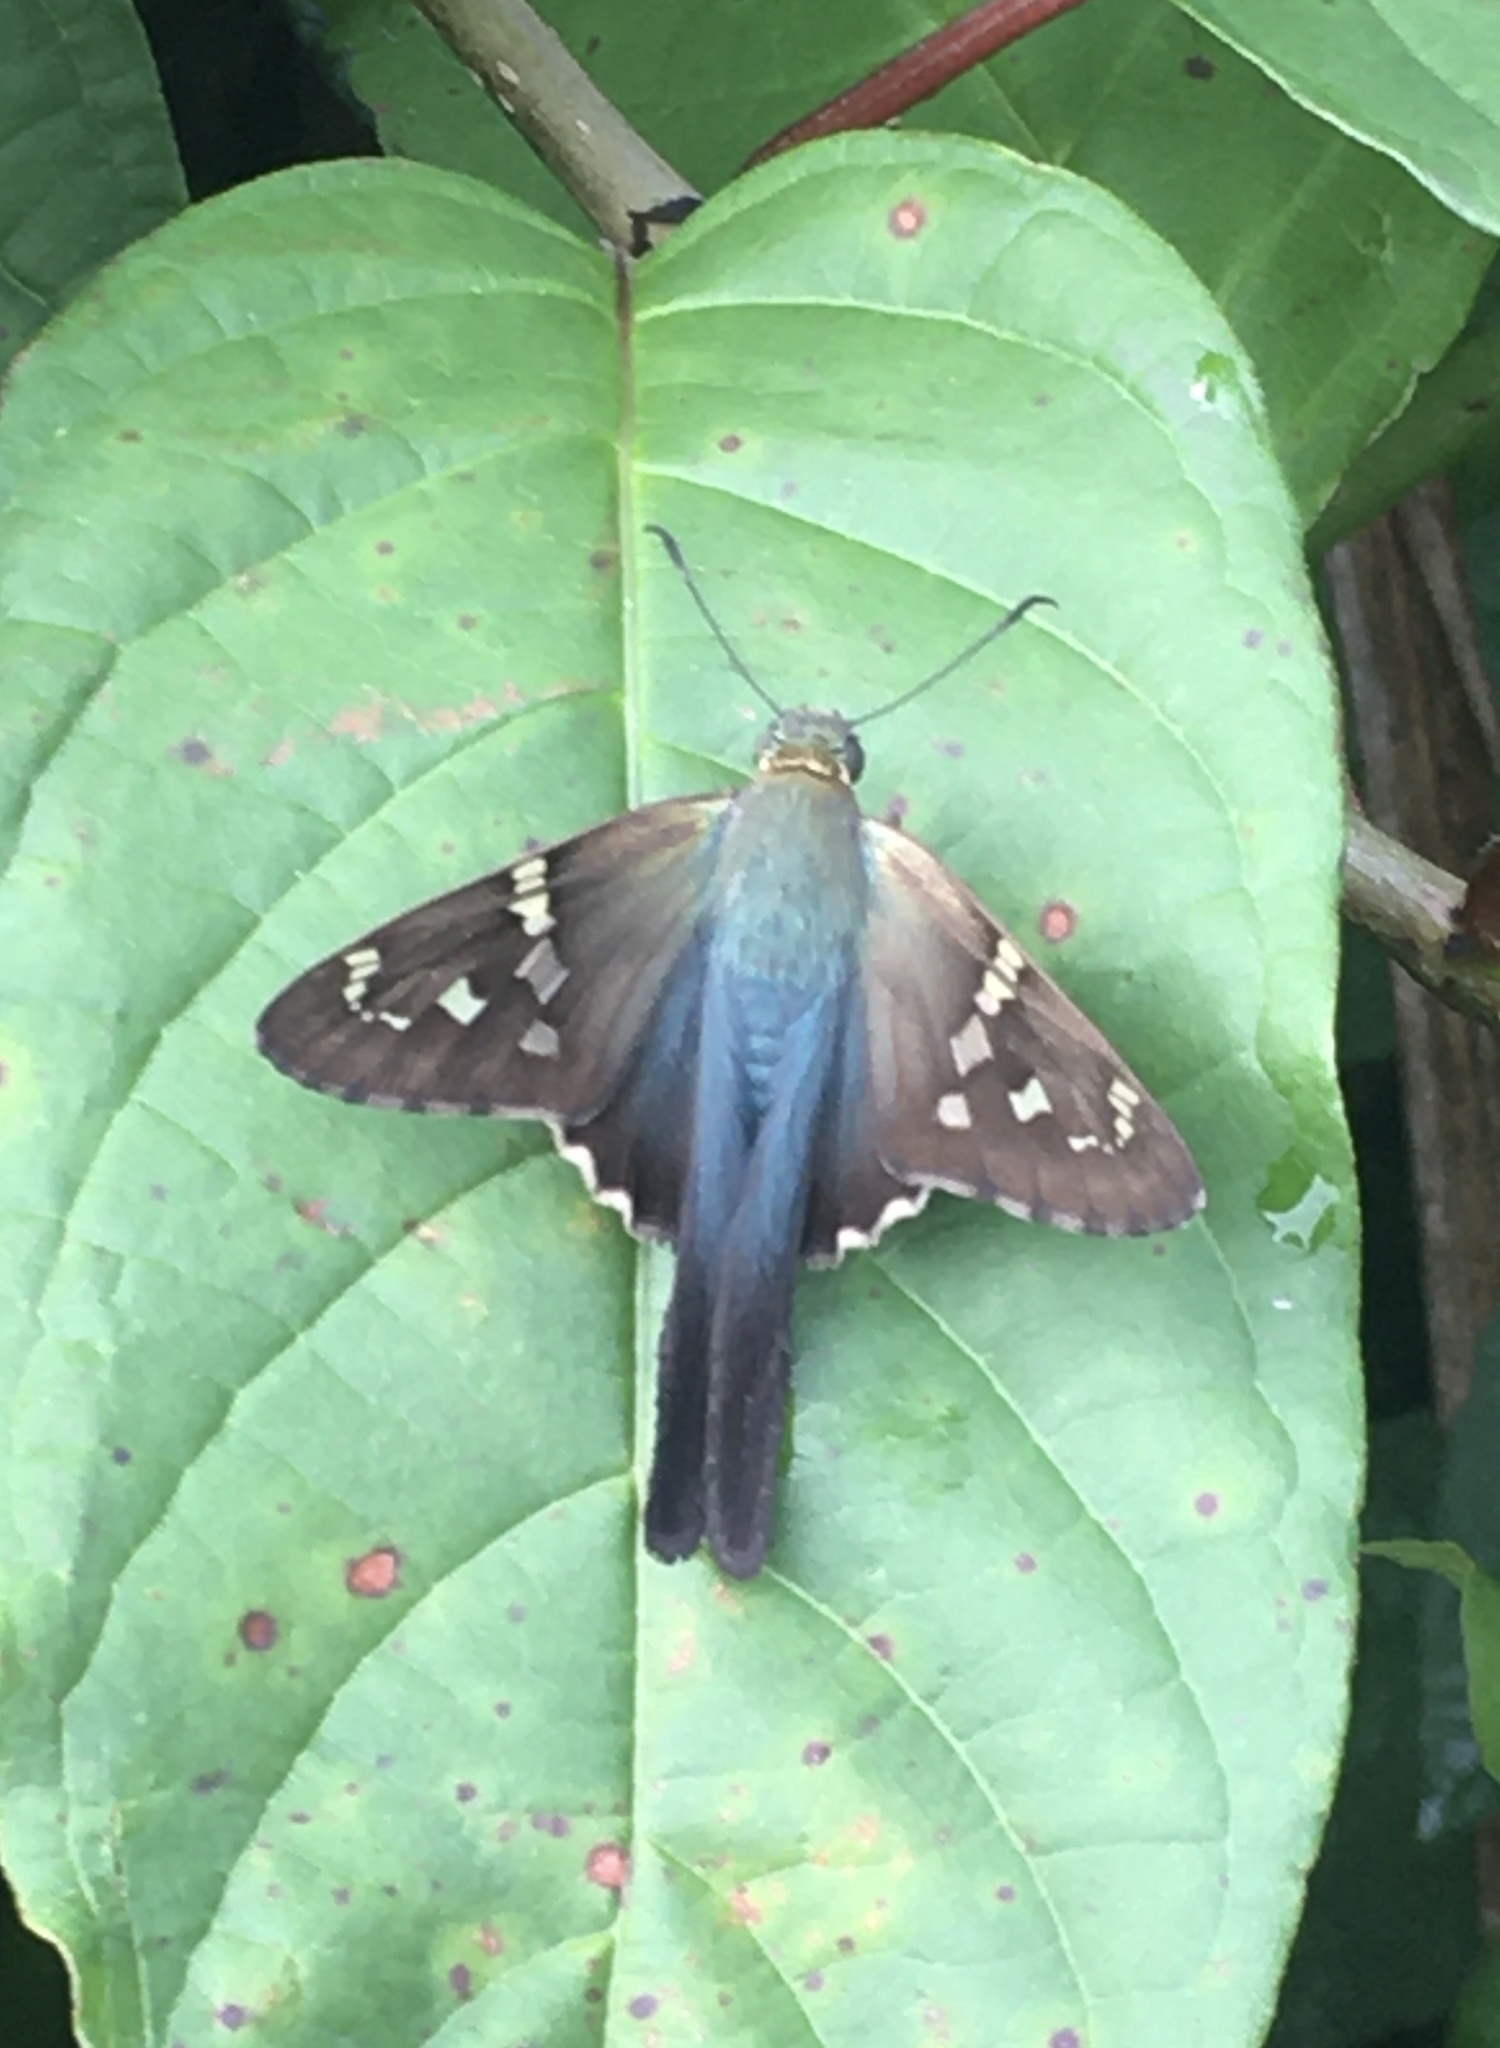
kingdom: Animalia
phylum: Arthropoda
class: Insecta
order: Lepidoptera
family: Hesperiidae
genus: Urbanus
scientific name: Urbanus proteus
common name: Long-tailed skipper
